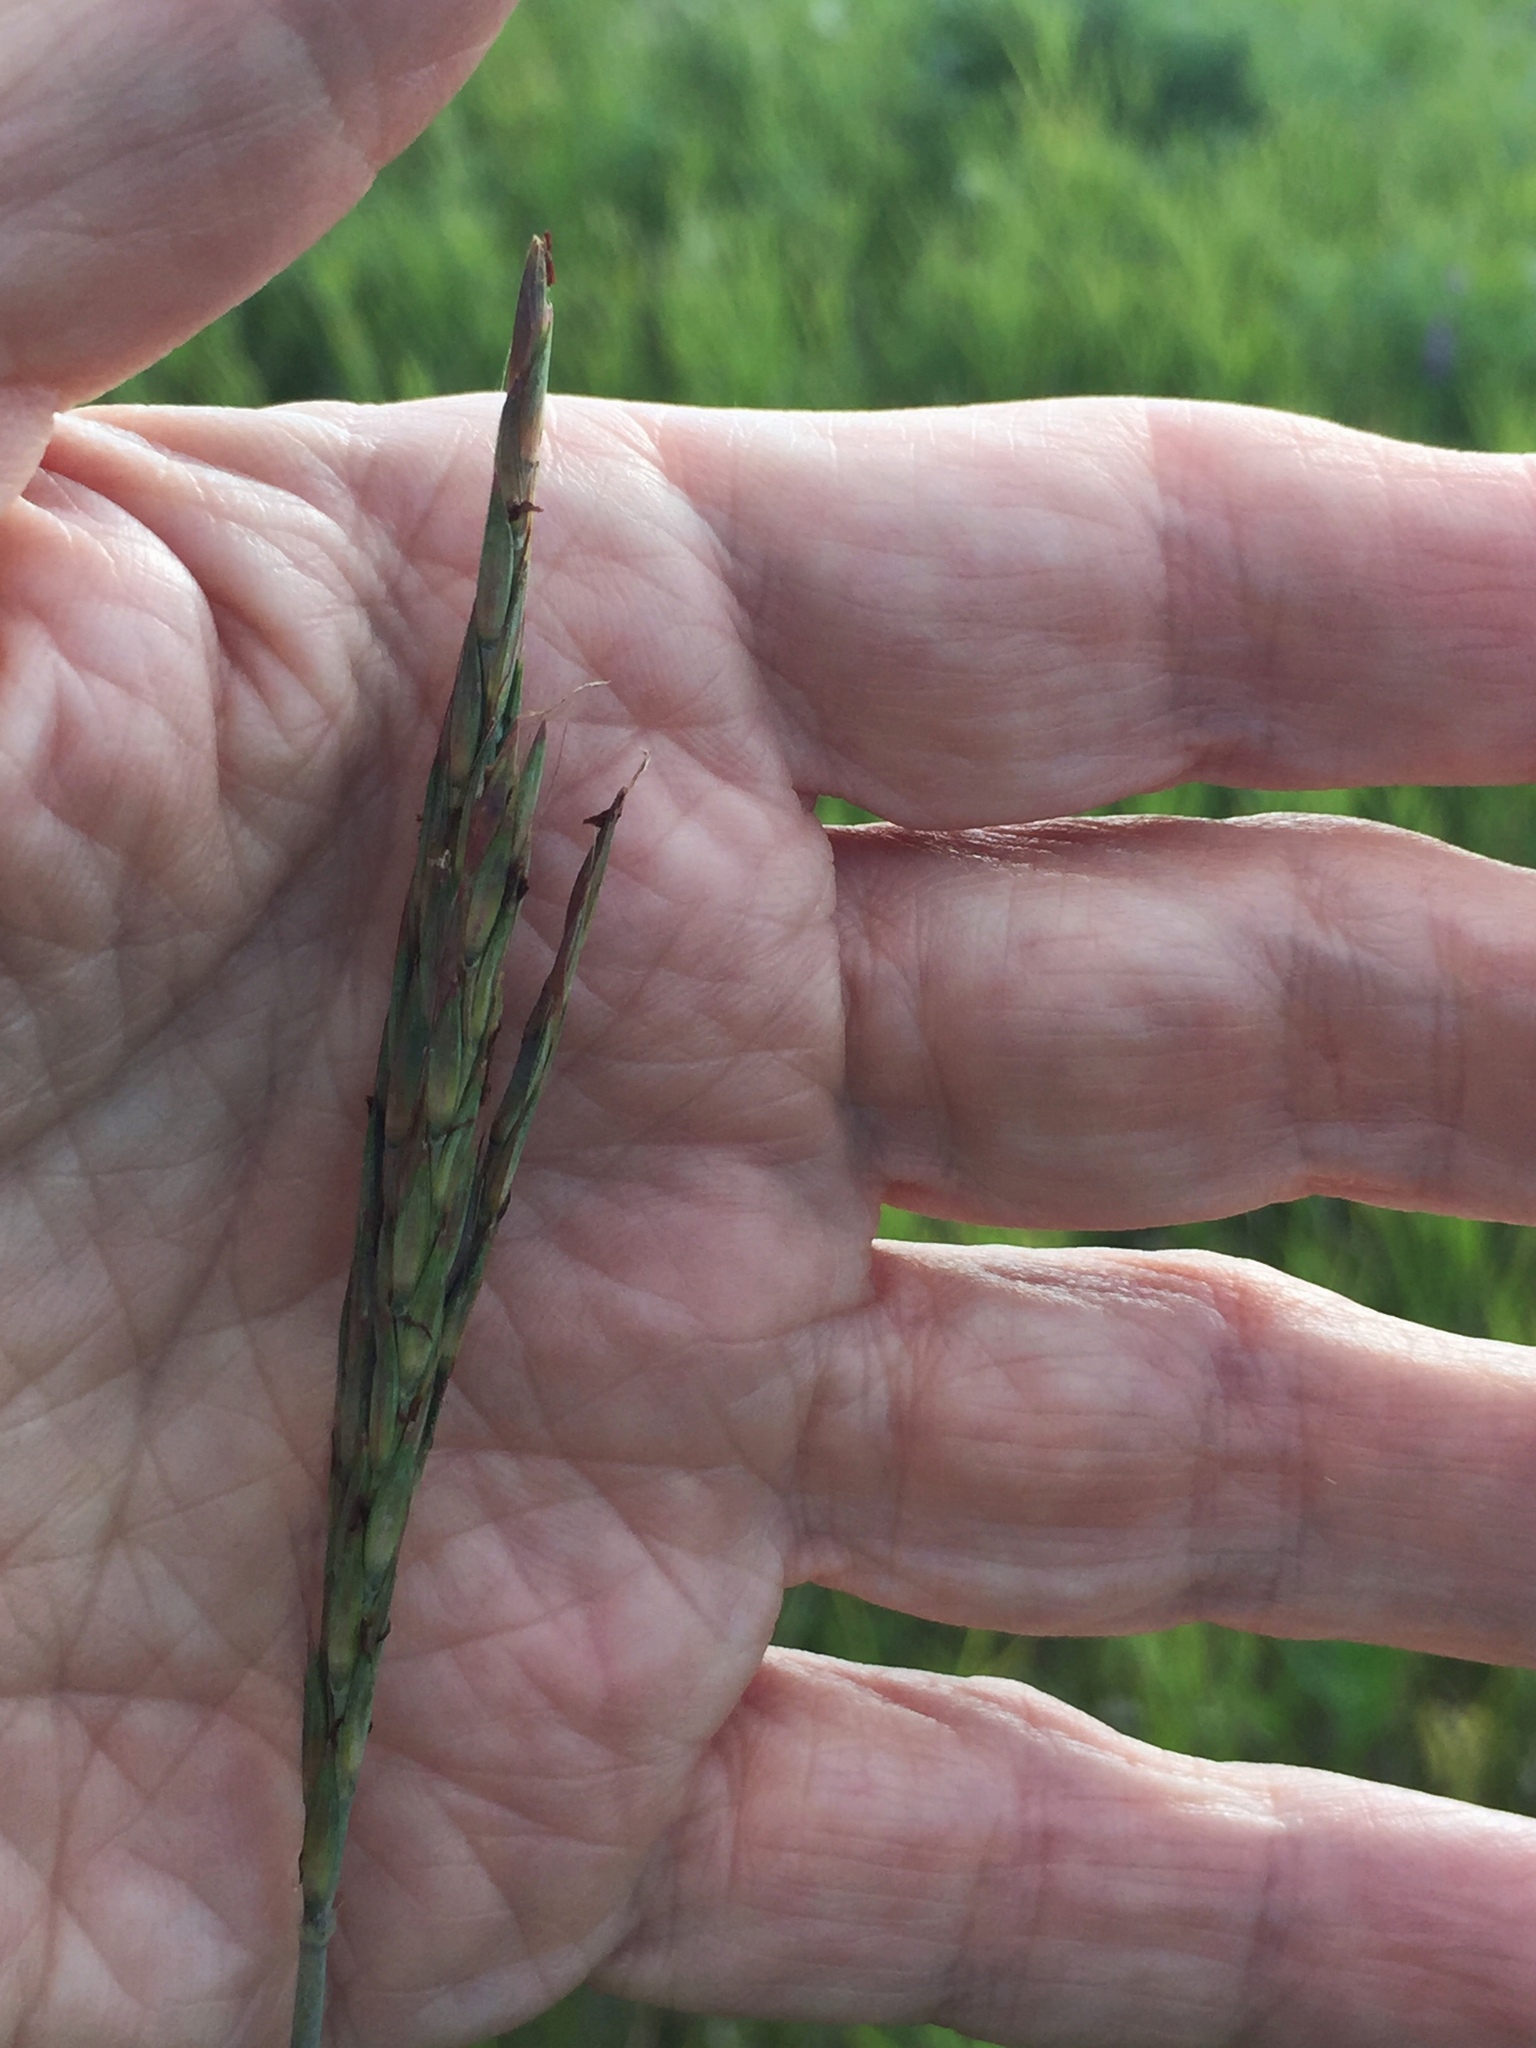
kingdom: Plantae
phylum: Tracheophyta
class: Liliopsida
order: Poales
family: Poaceae
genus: Andropogon
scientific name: Andropogon gerardi
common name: Big bluestem
